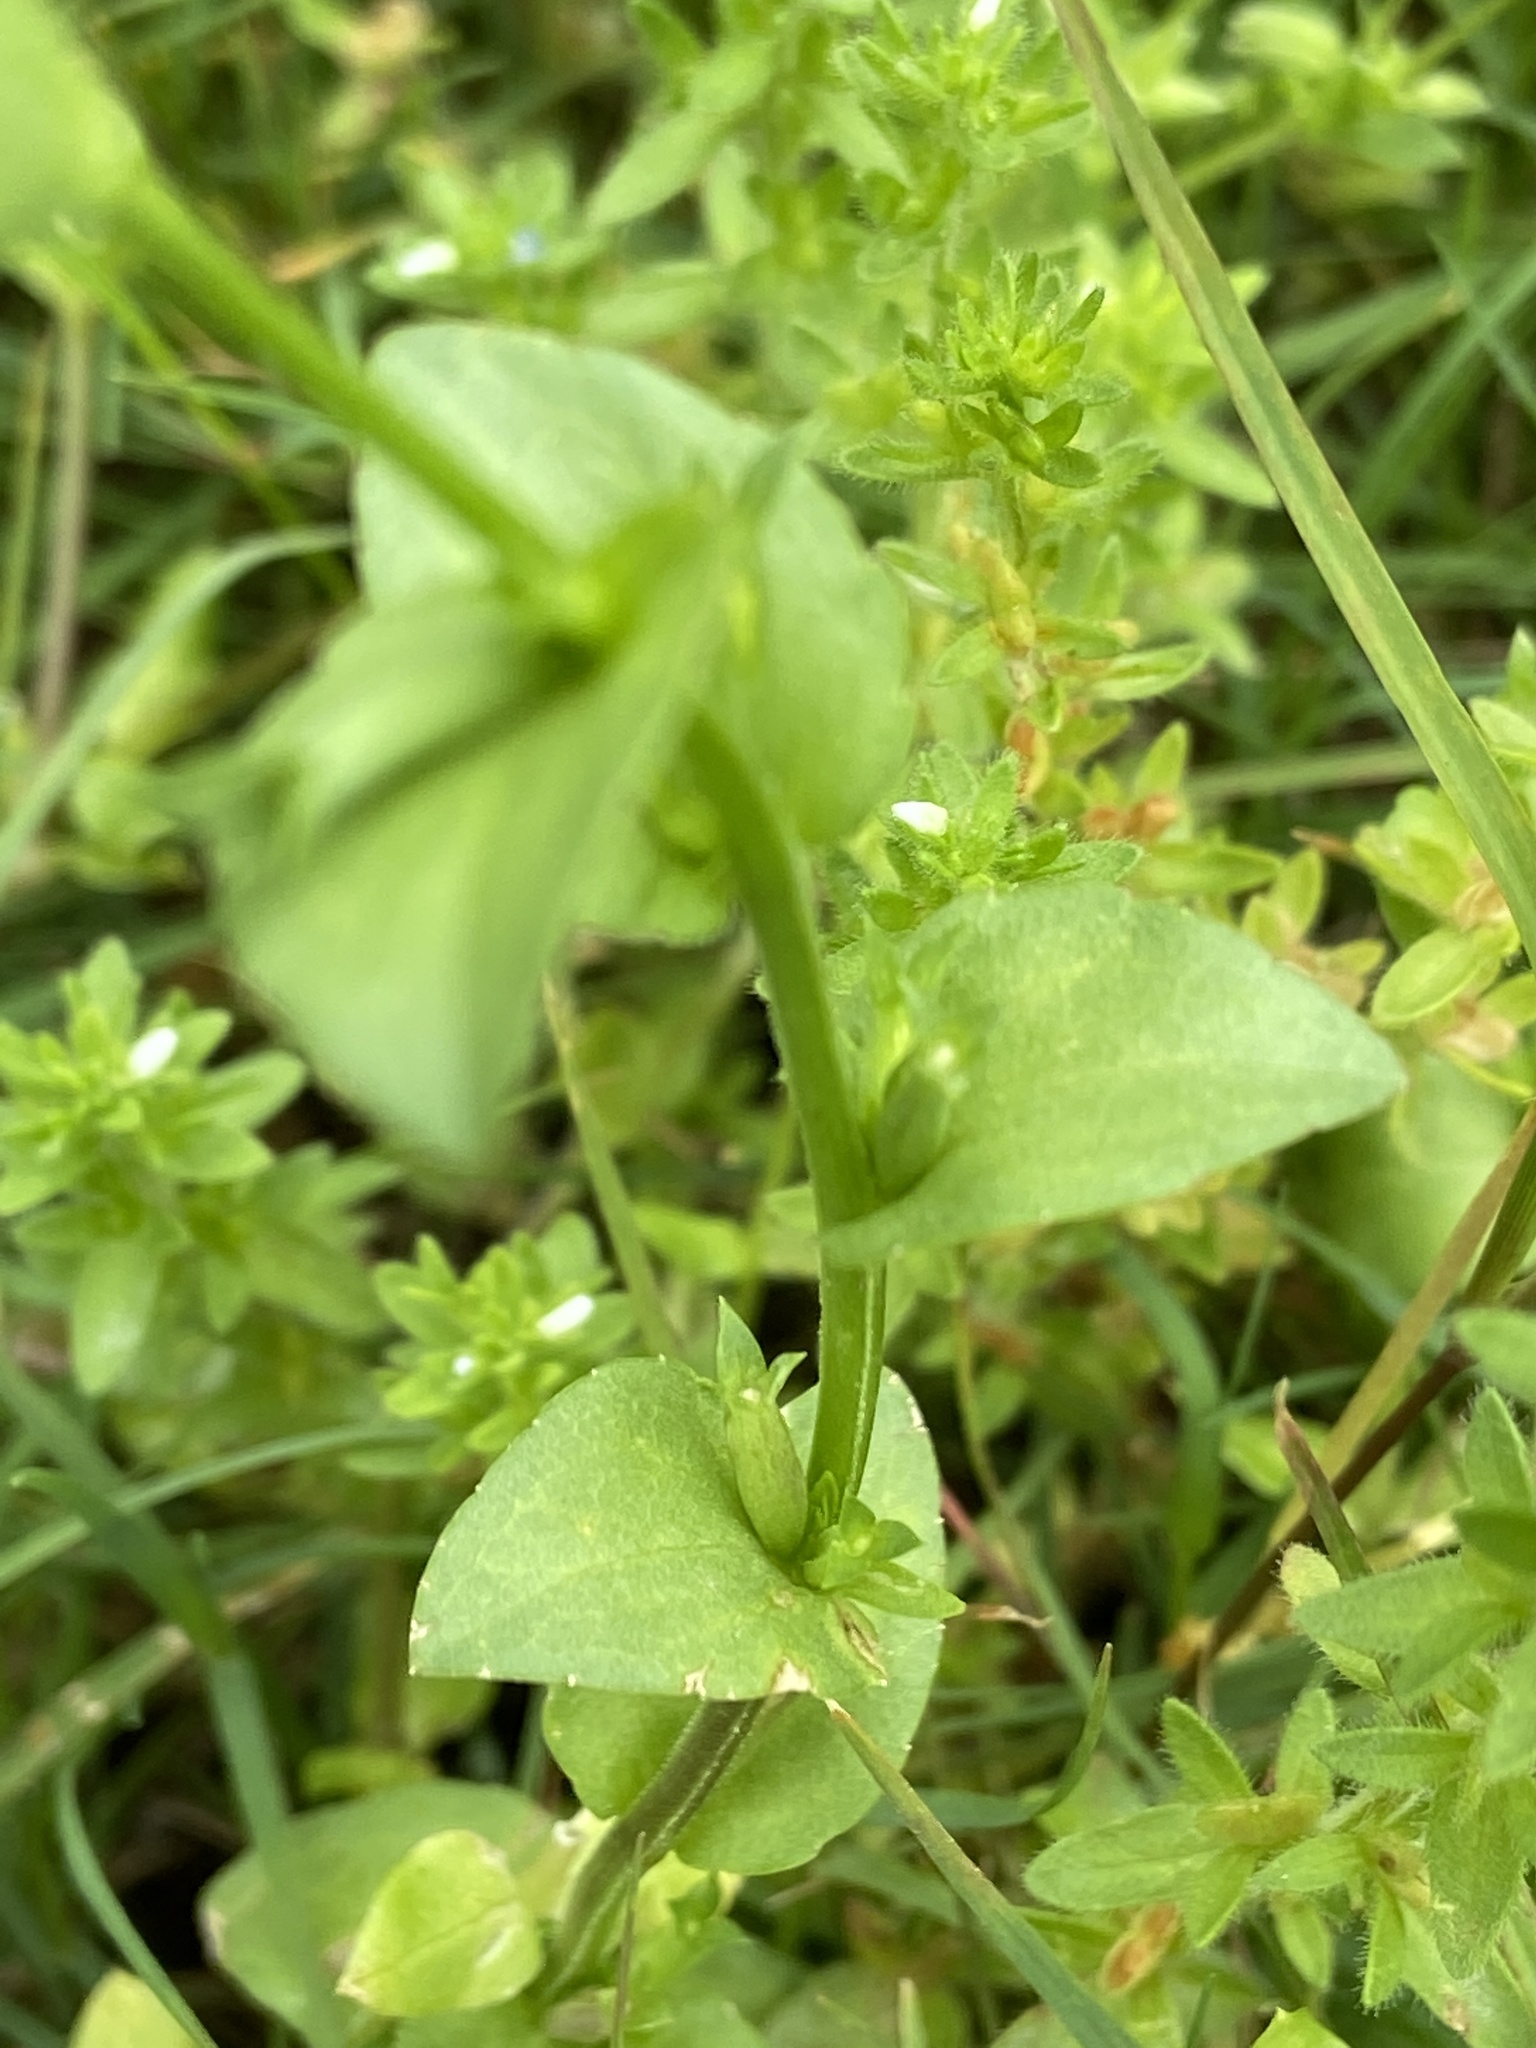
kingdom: Plantae
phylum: Tracheophyta
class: Magnoliopsida
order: Asterales
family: Campanulaceae
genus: Triodanis
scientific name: Triodanis biflora
